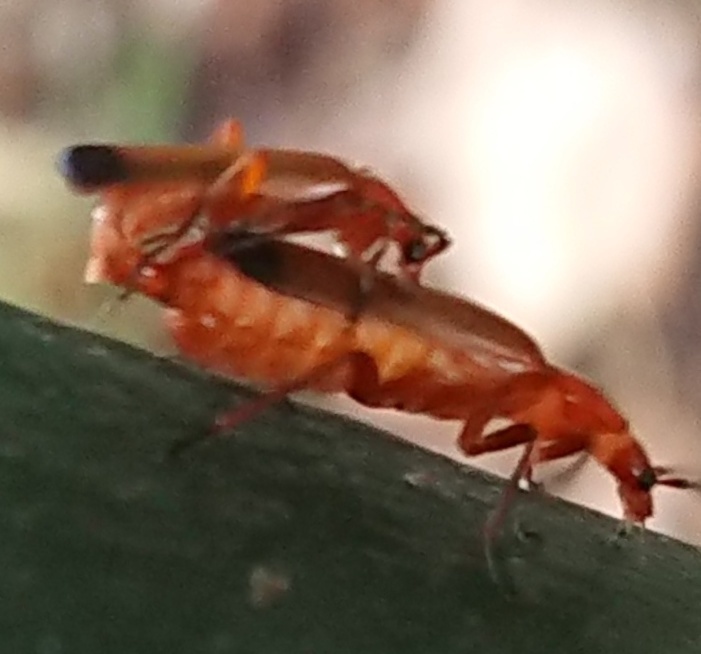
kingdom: Animalia
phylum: Arthropoda
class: Insecta
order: Coleoptera
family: Cantharidae
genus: Rhagonycha
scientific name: Rhagonycha fulva
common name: Common red soldier beetle
